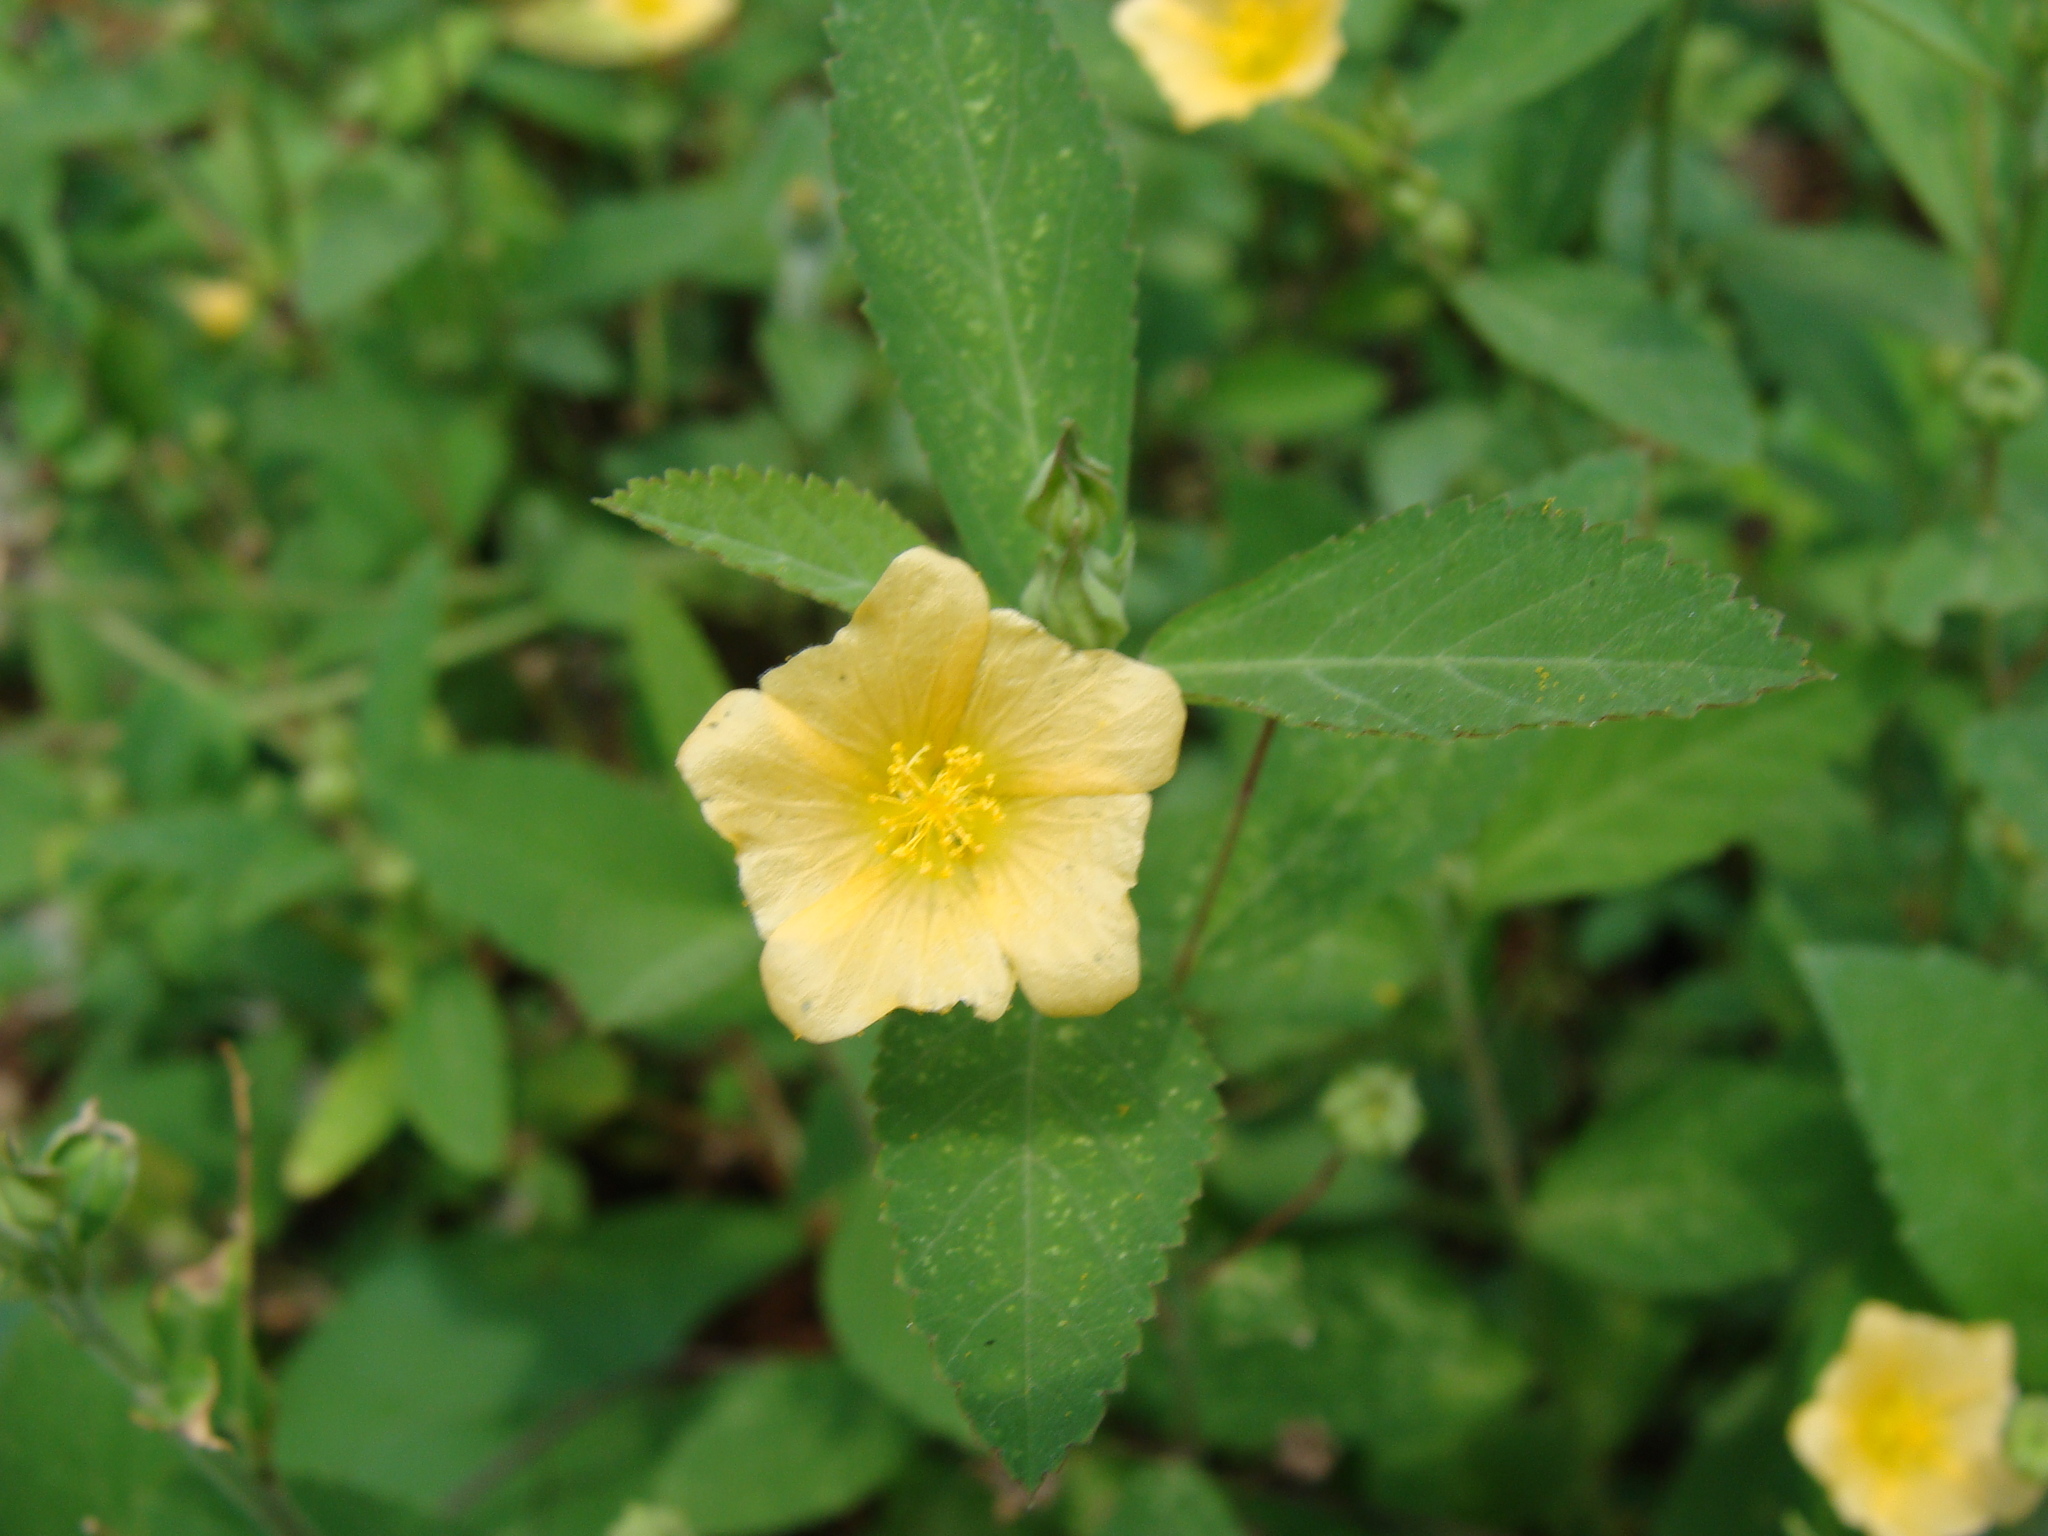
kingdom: Plantae
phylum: Tracheophyta
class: Magnoliopsida
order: Malvales
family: Malvaceae
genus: Sida
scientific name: Sida acuta
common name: Common wireweed
